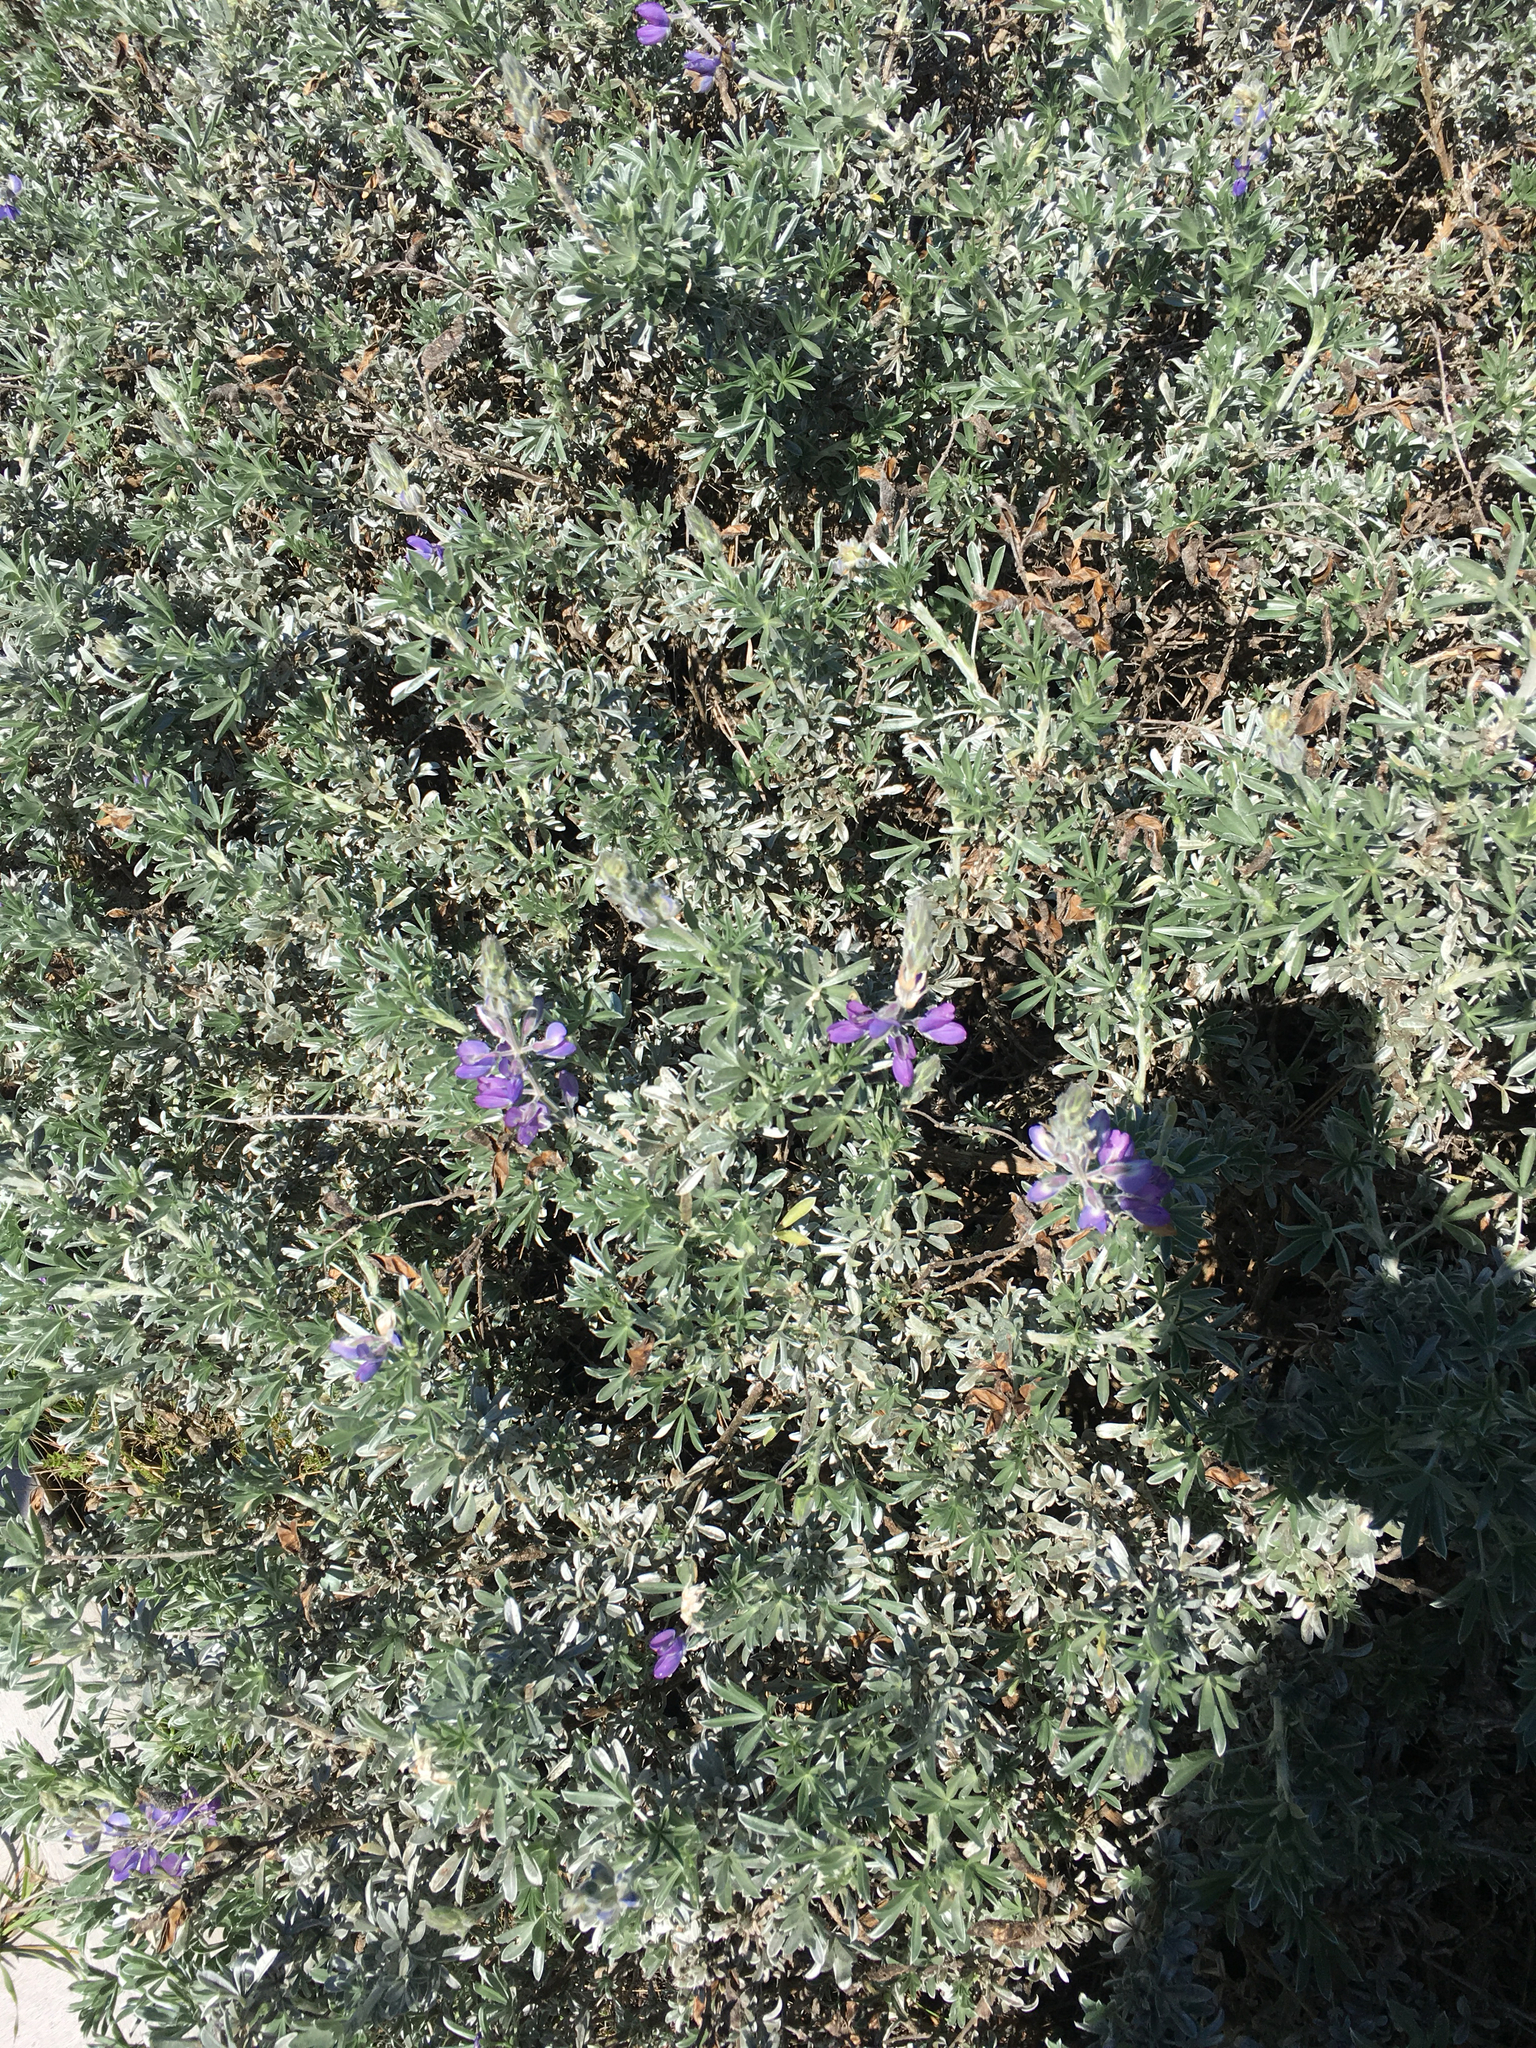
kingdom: Plantae
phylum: Tracheophyta
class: Magnoliopsida
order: Fabales
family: Fabaceae
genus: Lupinus
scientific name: Lupinus chamissonis
